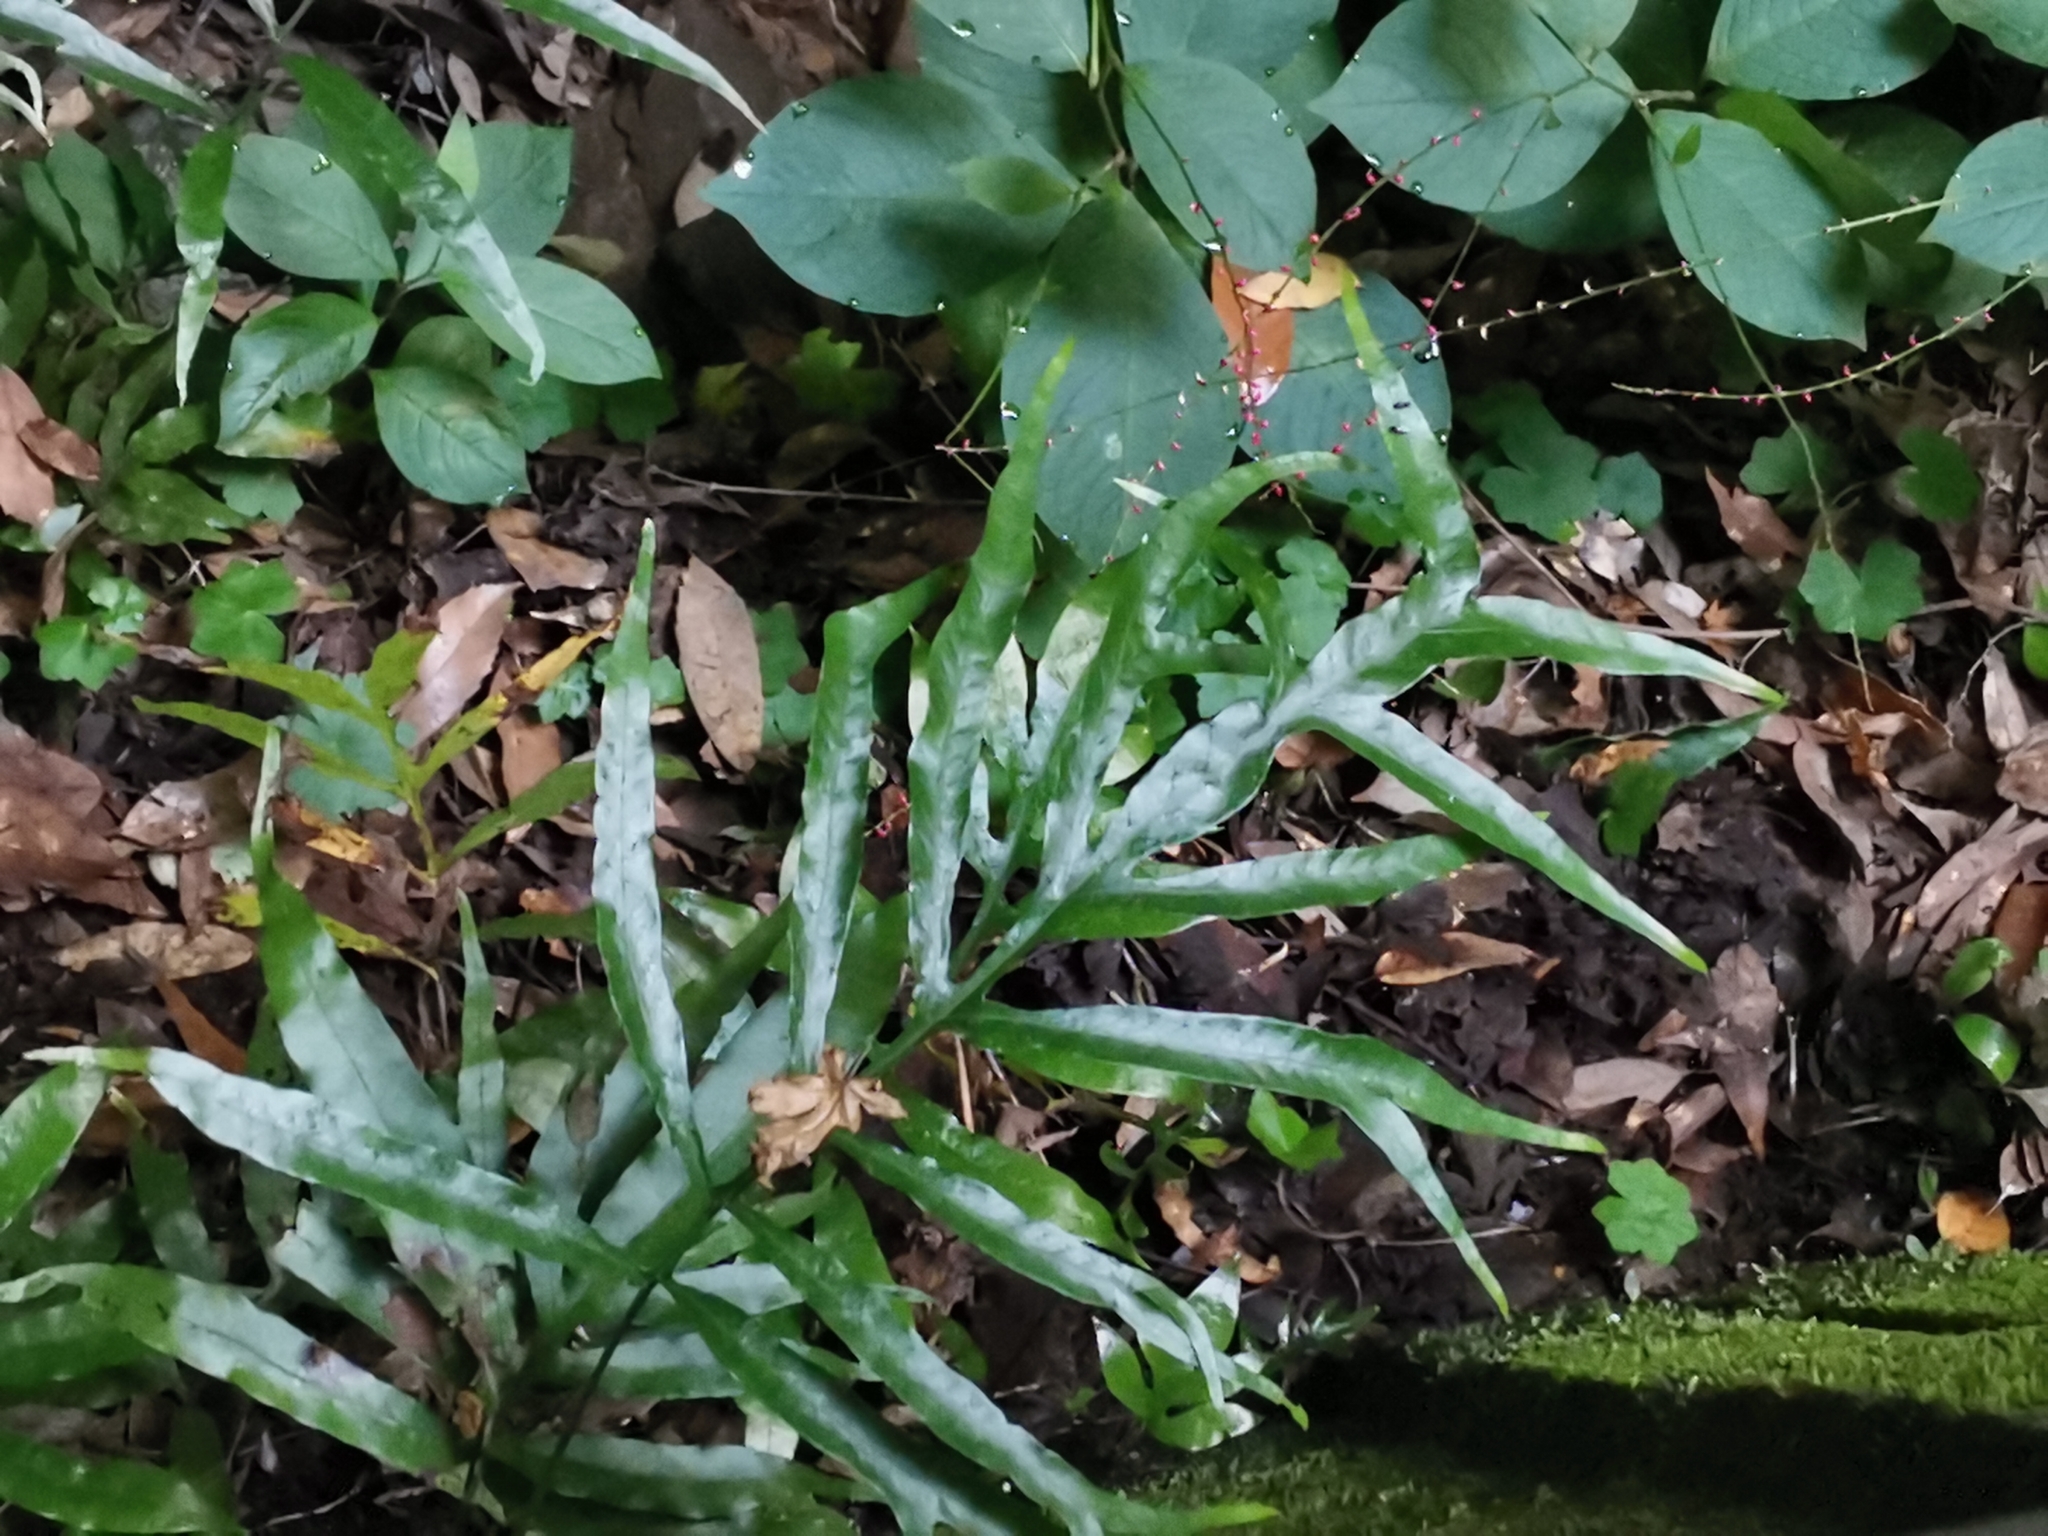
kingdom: Plantae
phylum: Tracheophyta
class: Polypodiopsida
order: Polypodiales
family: Polypodiaceae
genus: Leptochilus
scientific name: Leptochilus ellipticus
